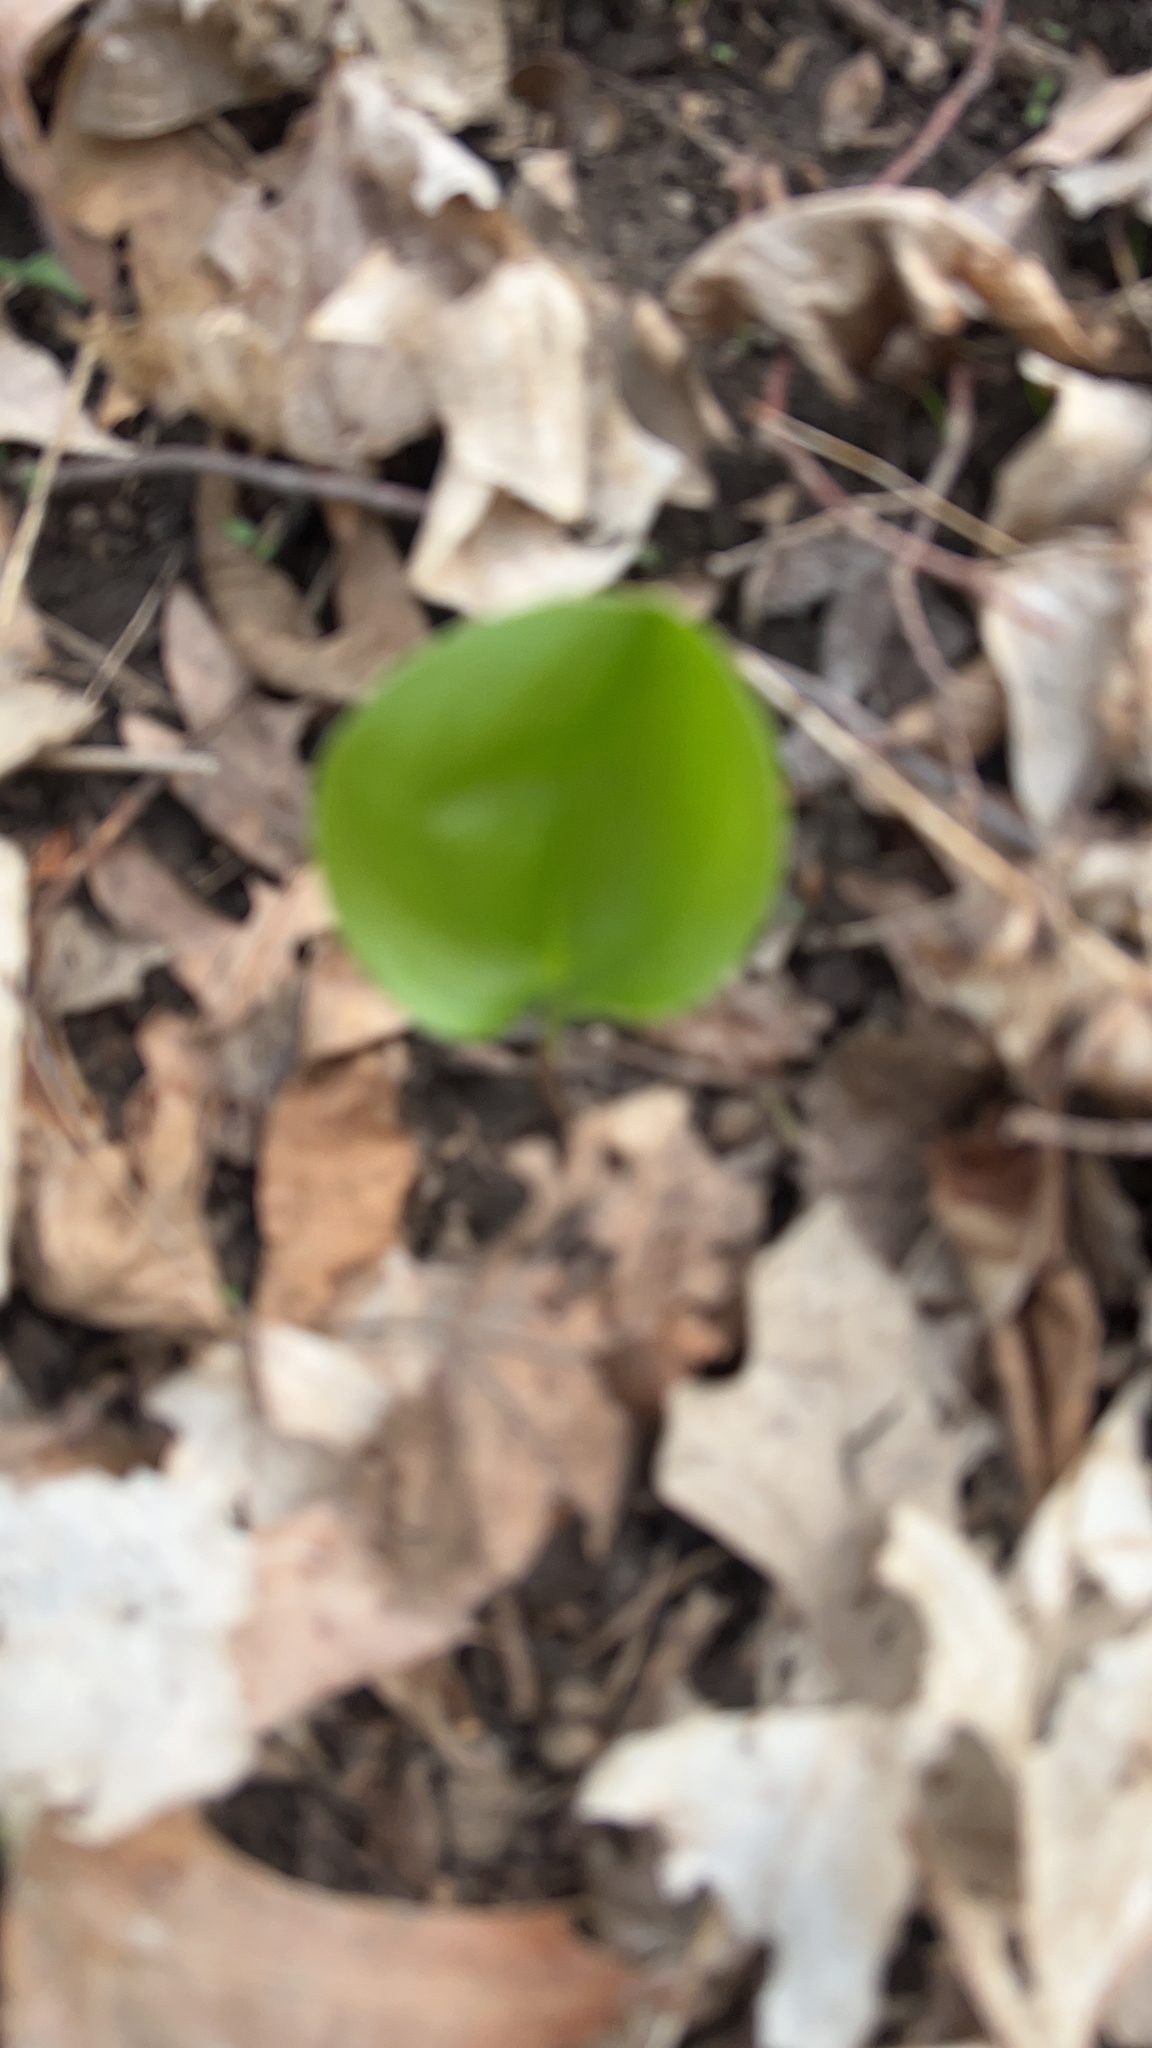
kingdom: Plantae
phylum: Tracheophyta
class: Liliopsida
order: Asparagales
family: Asparagaceae
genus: Maianthemum
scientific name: Maianthemum canadense
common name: False lily-of-the-valley
